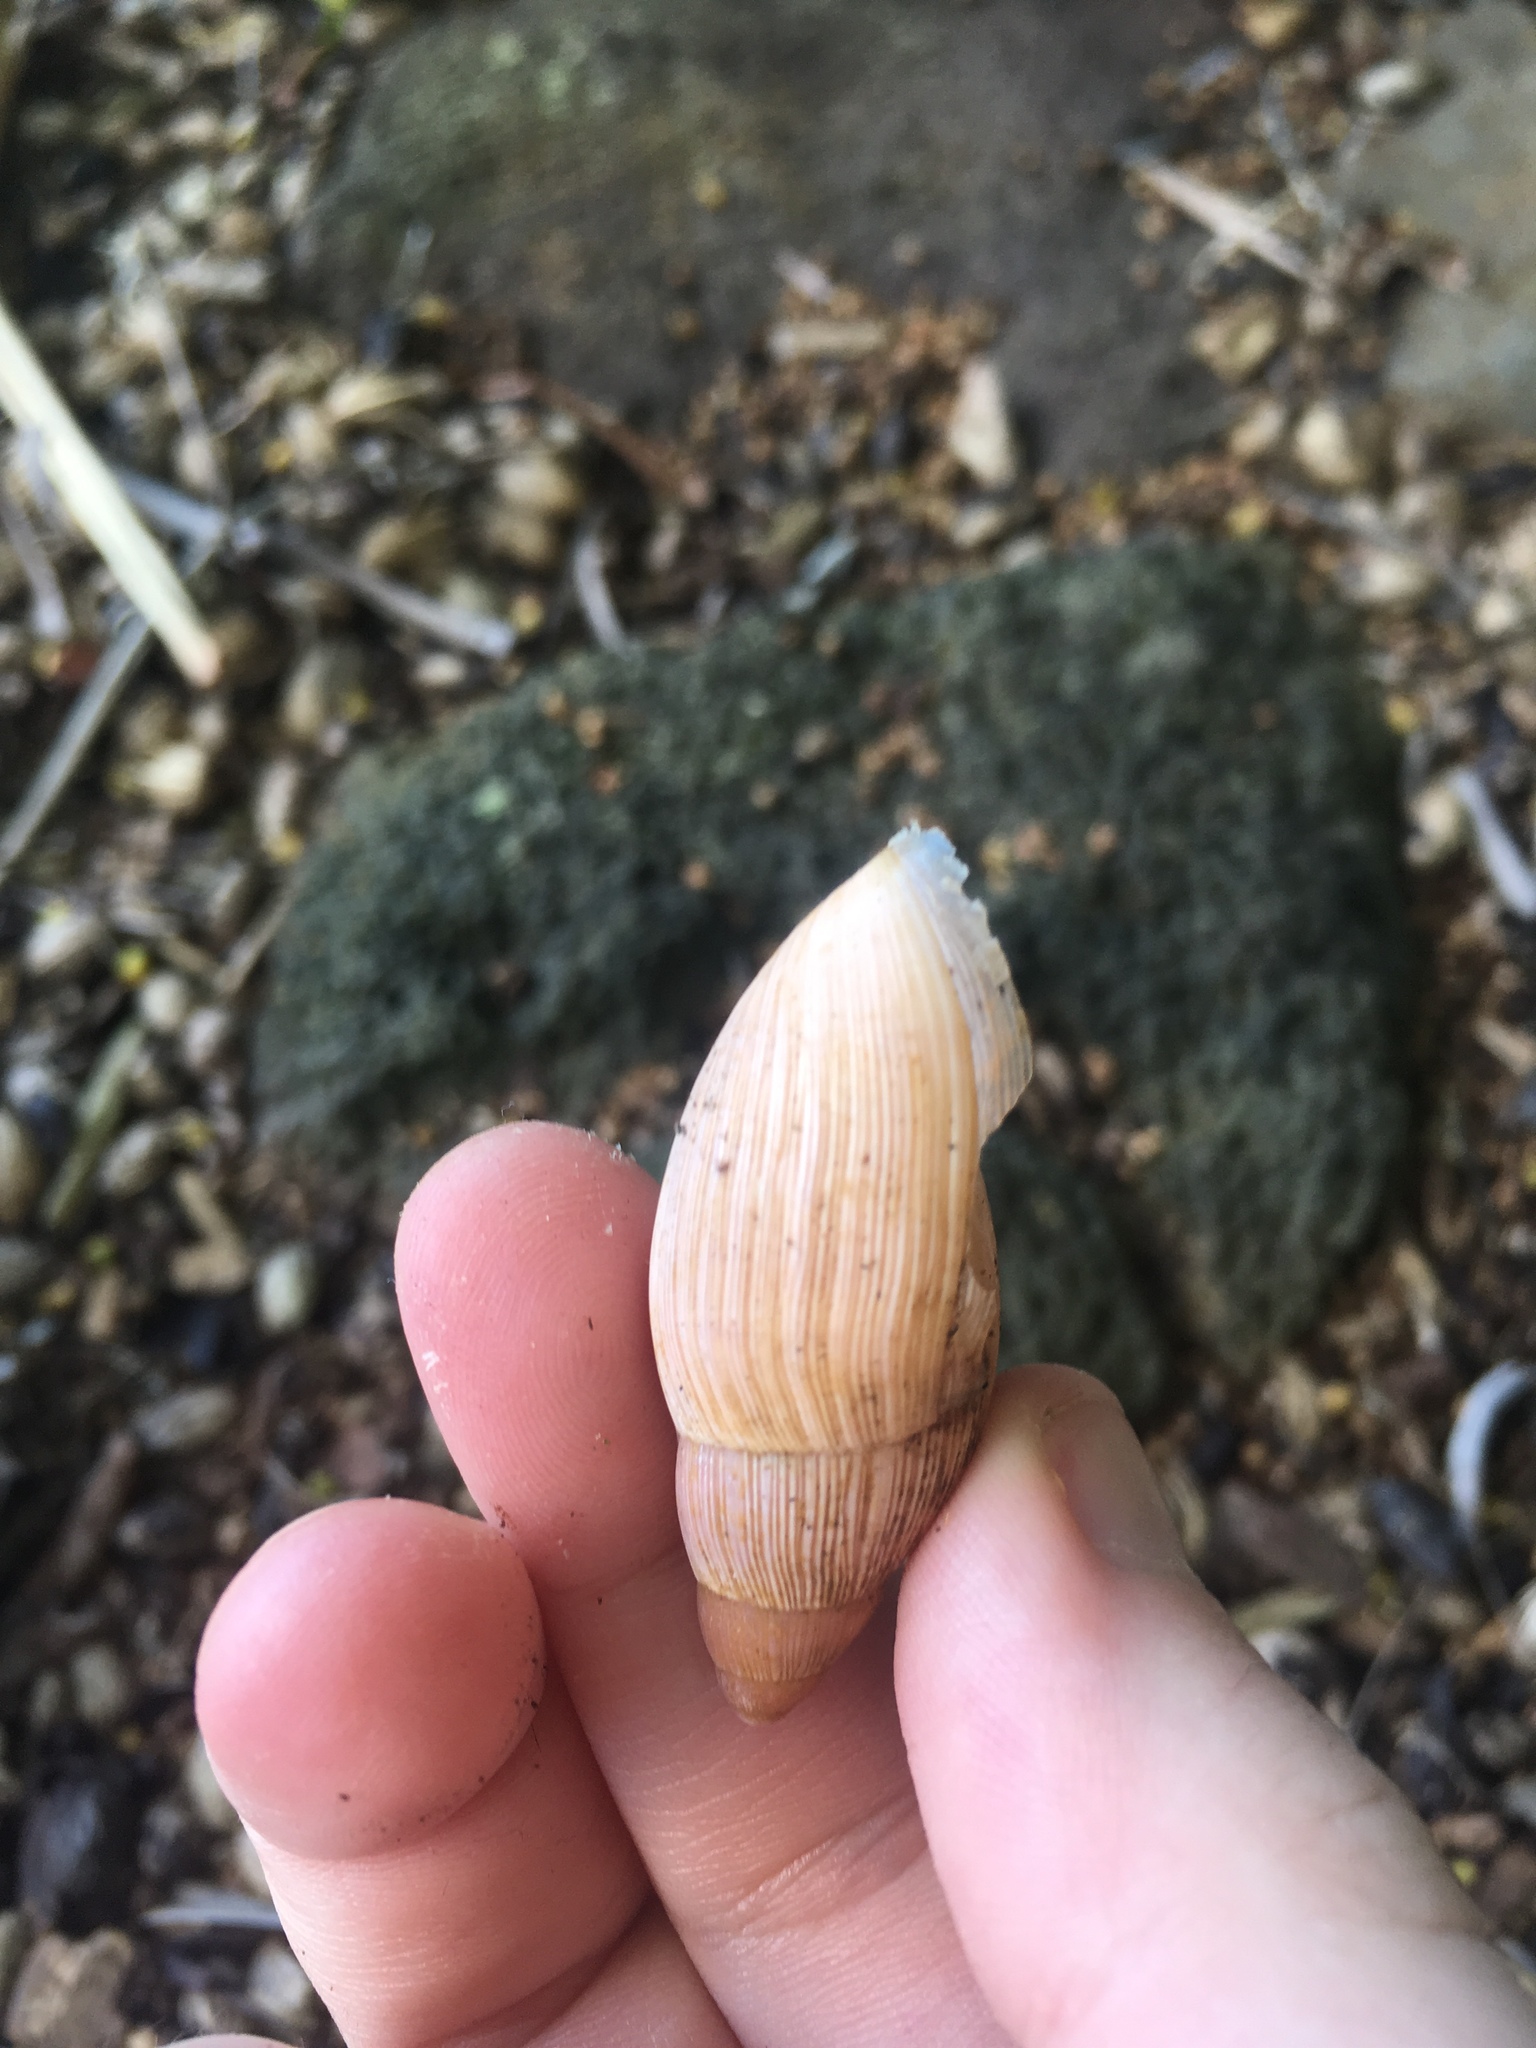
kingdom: Animalia
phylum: Mollusca
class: Gastropoda
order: Stylommatophora
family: Spiraxidae
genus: Euglandina
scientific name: Euglandina rosea
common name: Rosy wolfsnail
